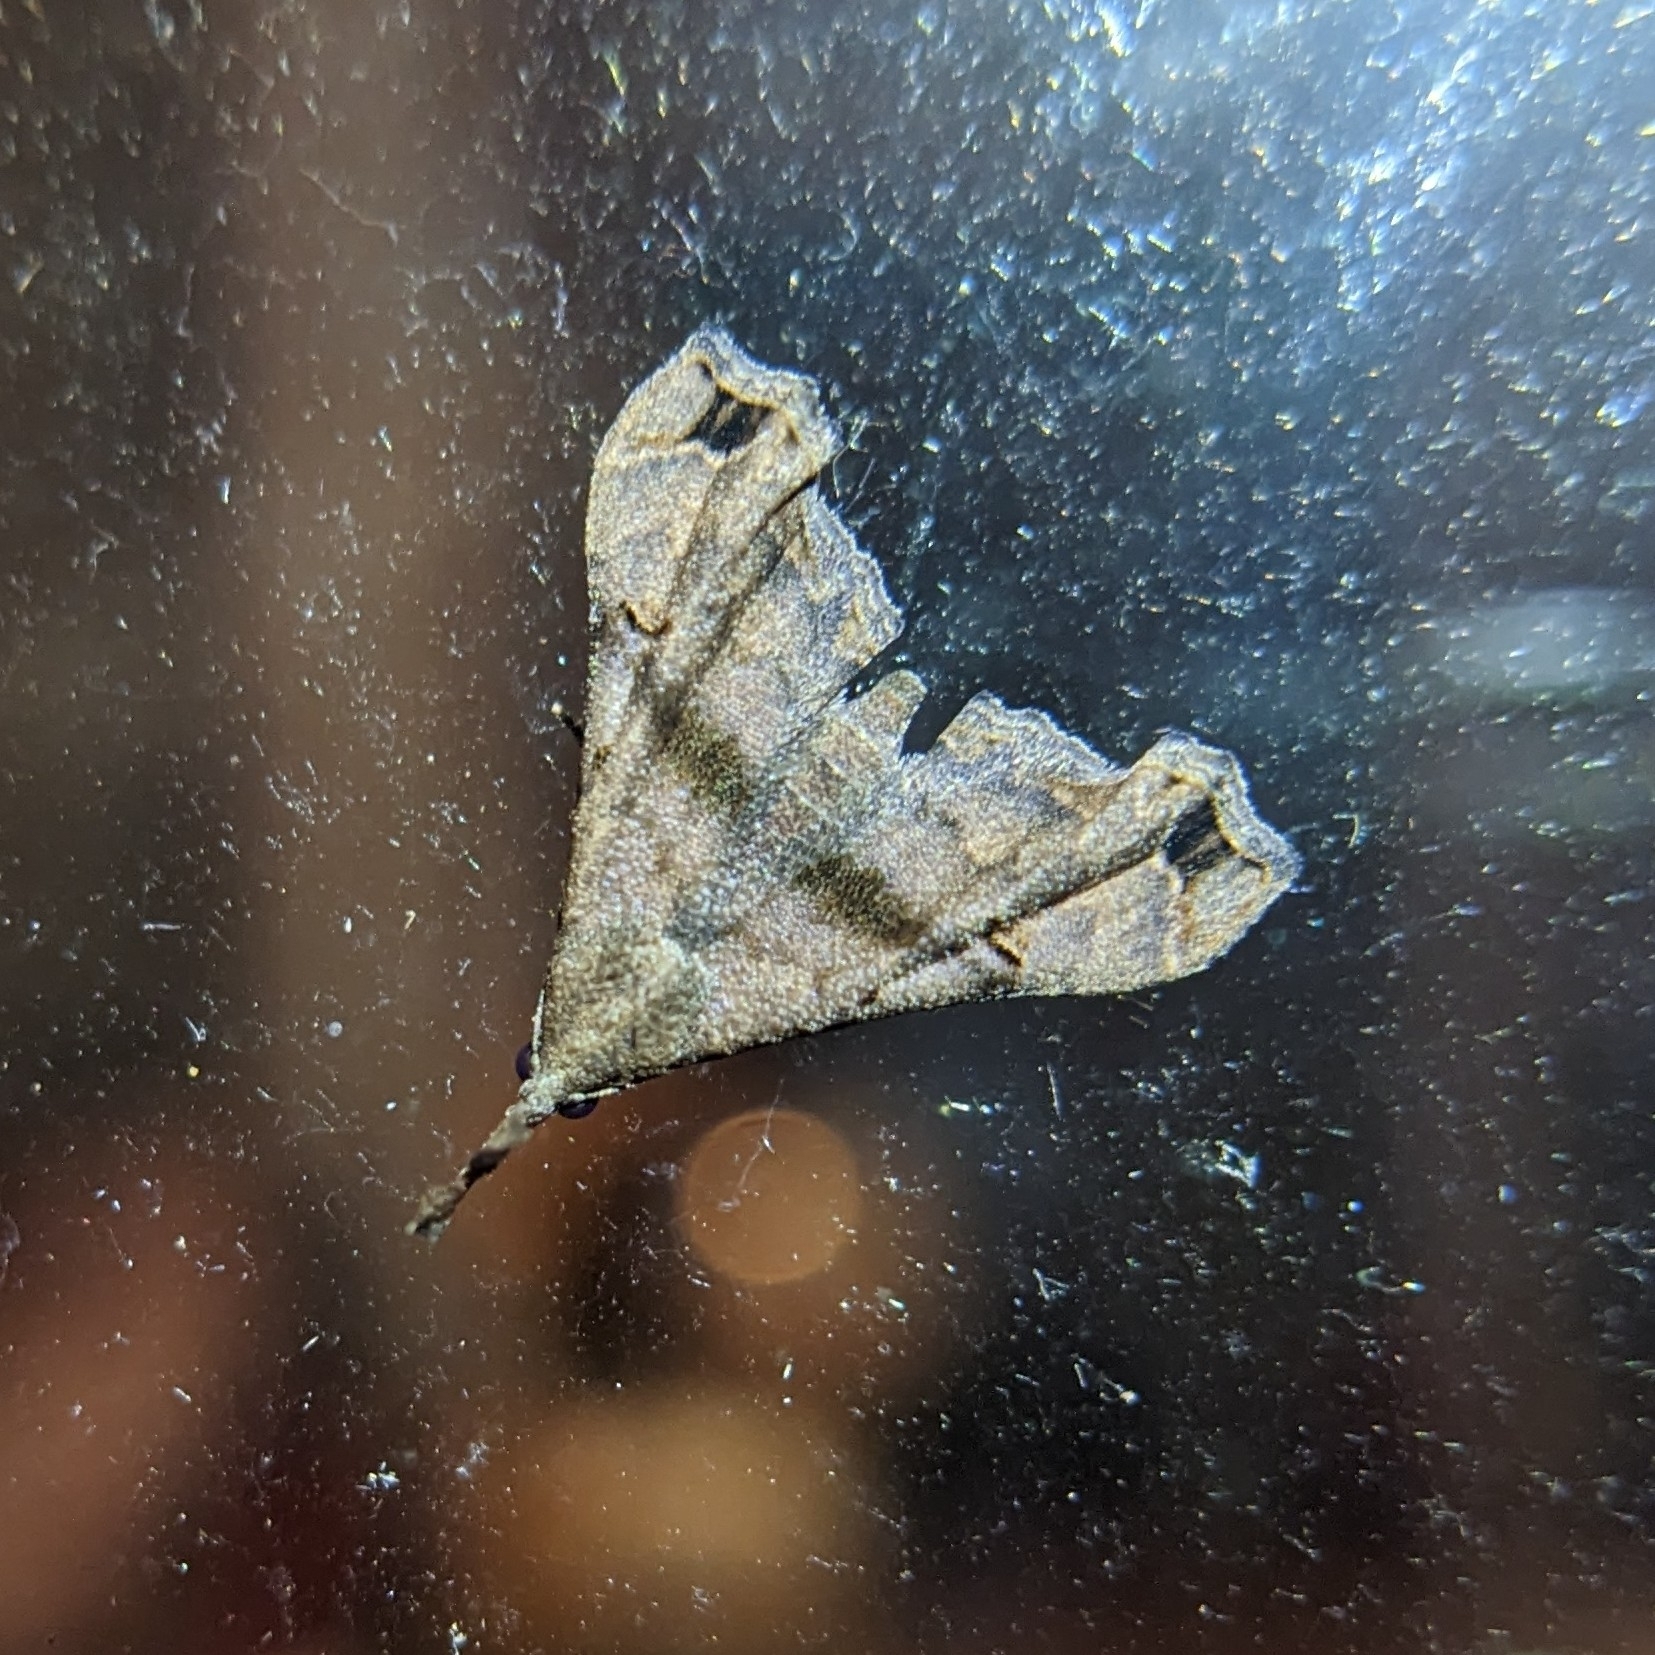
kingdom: Animalia
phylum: Arthropoda
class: Insecta
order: Lepidoptera
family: Erebidae
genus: Palthis
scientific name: Palthis asopialis
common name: Faint-spotted palthis moth
